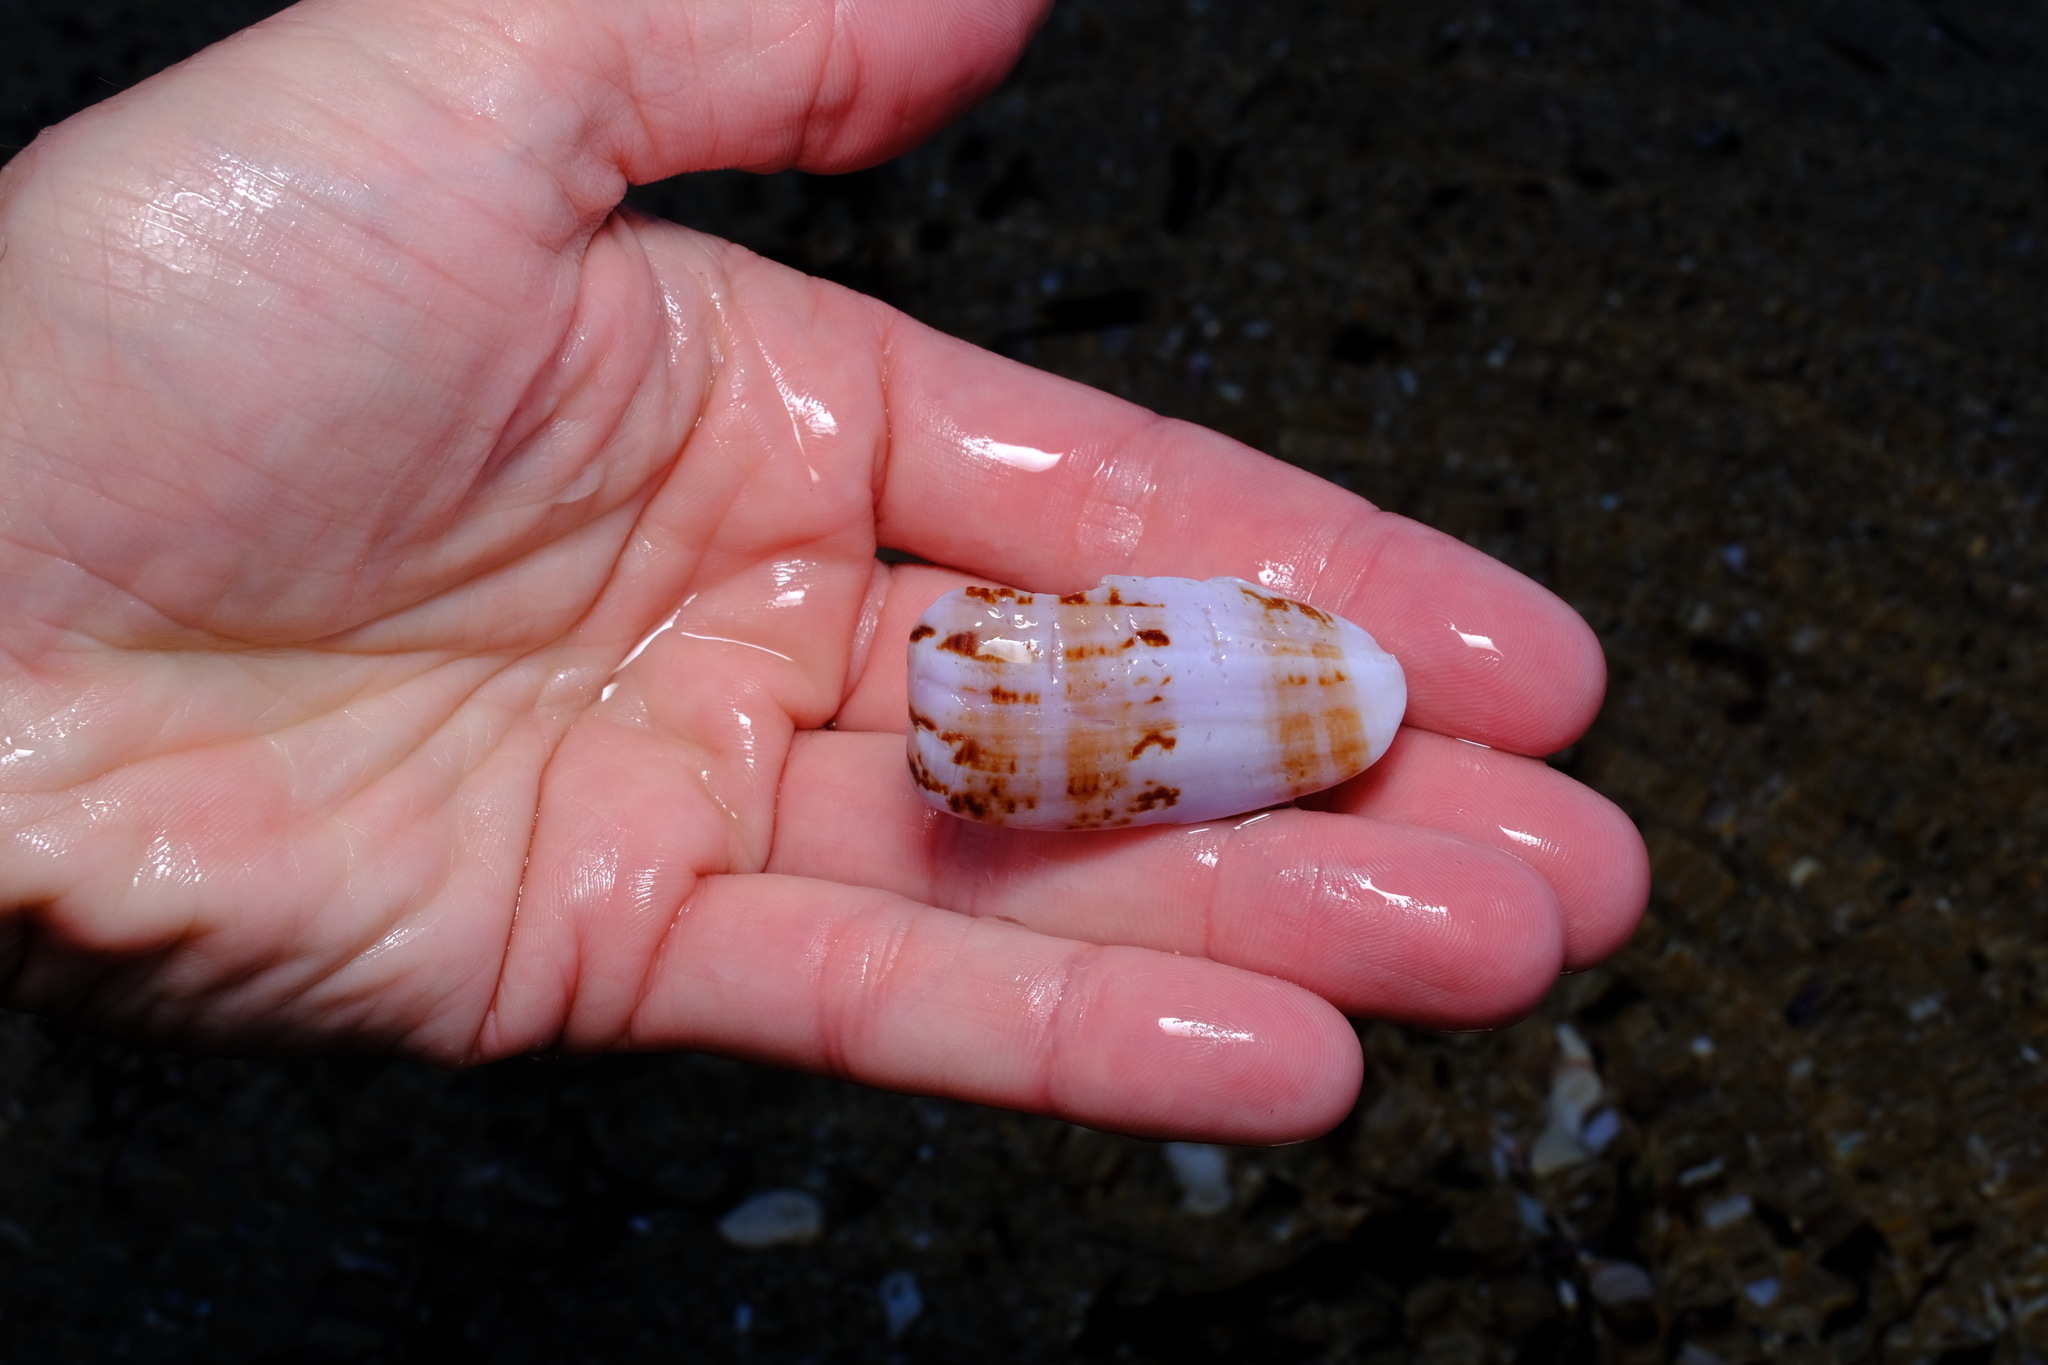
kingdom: Animalia
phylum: Mollusca
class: Gastropoda
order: Neogastropoda
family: Conidae
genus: Conus
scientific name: Conus anemone
